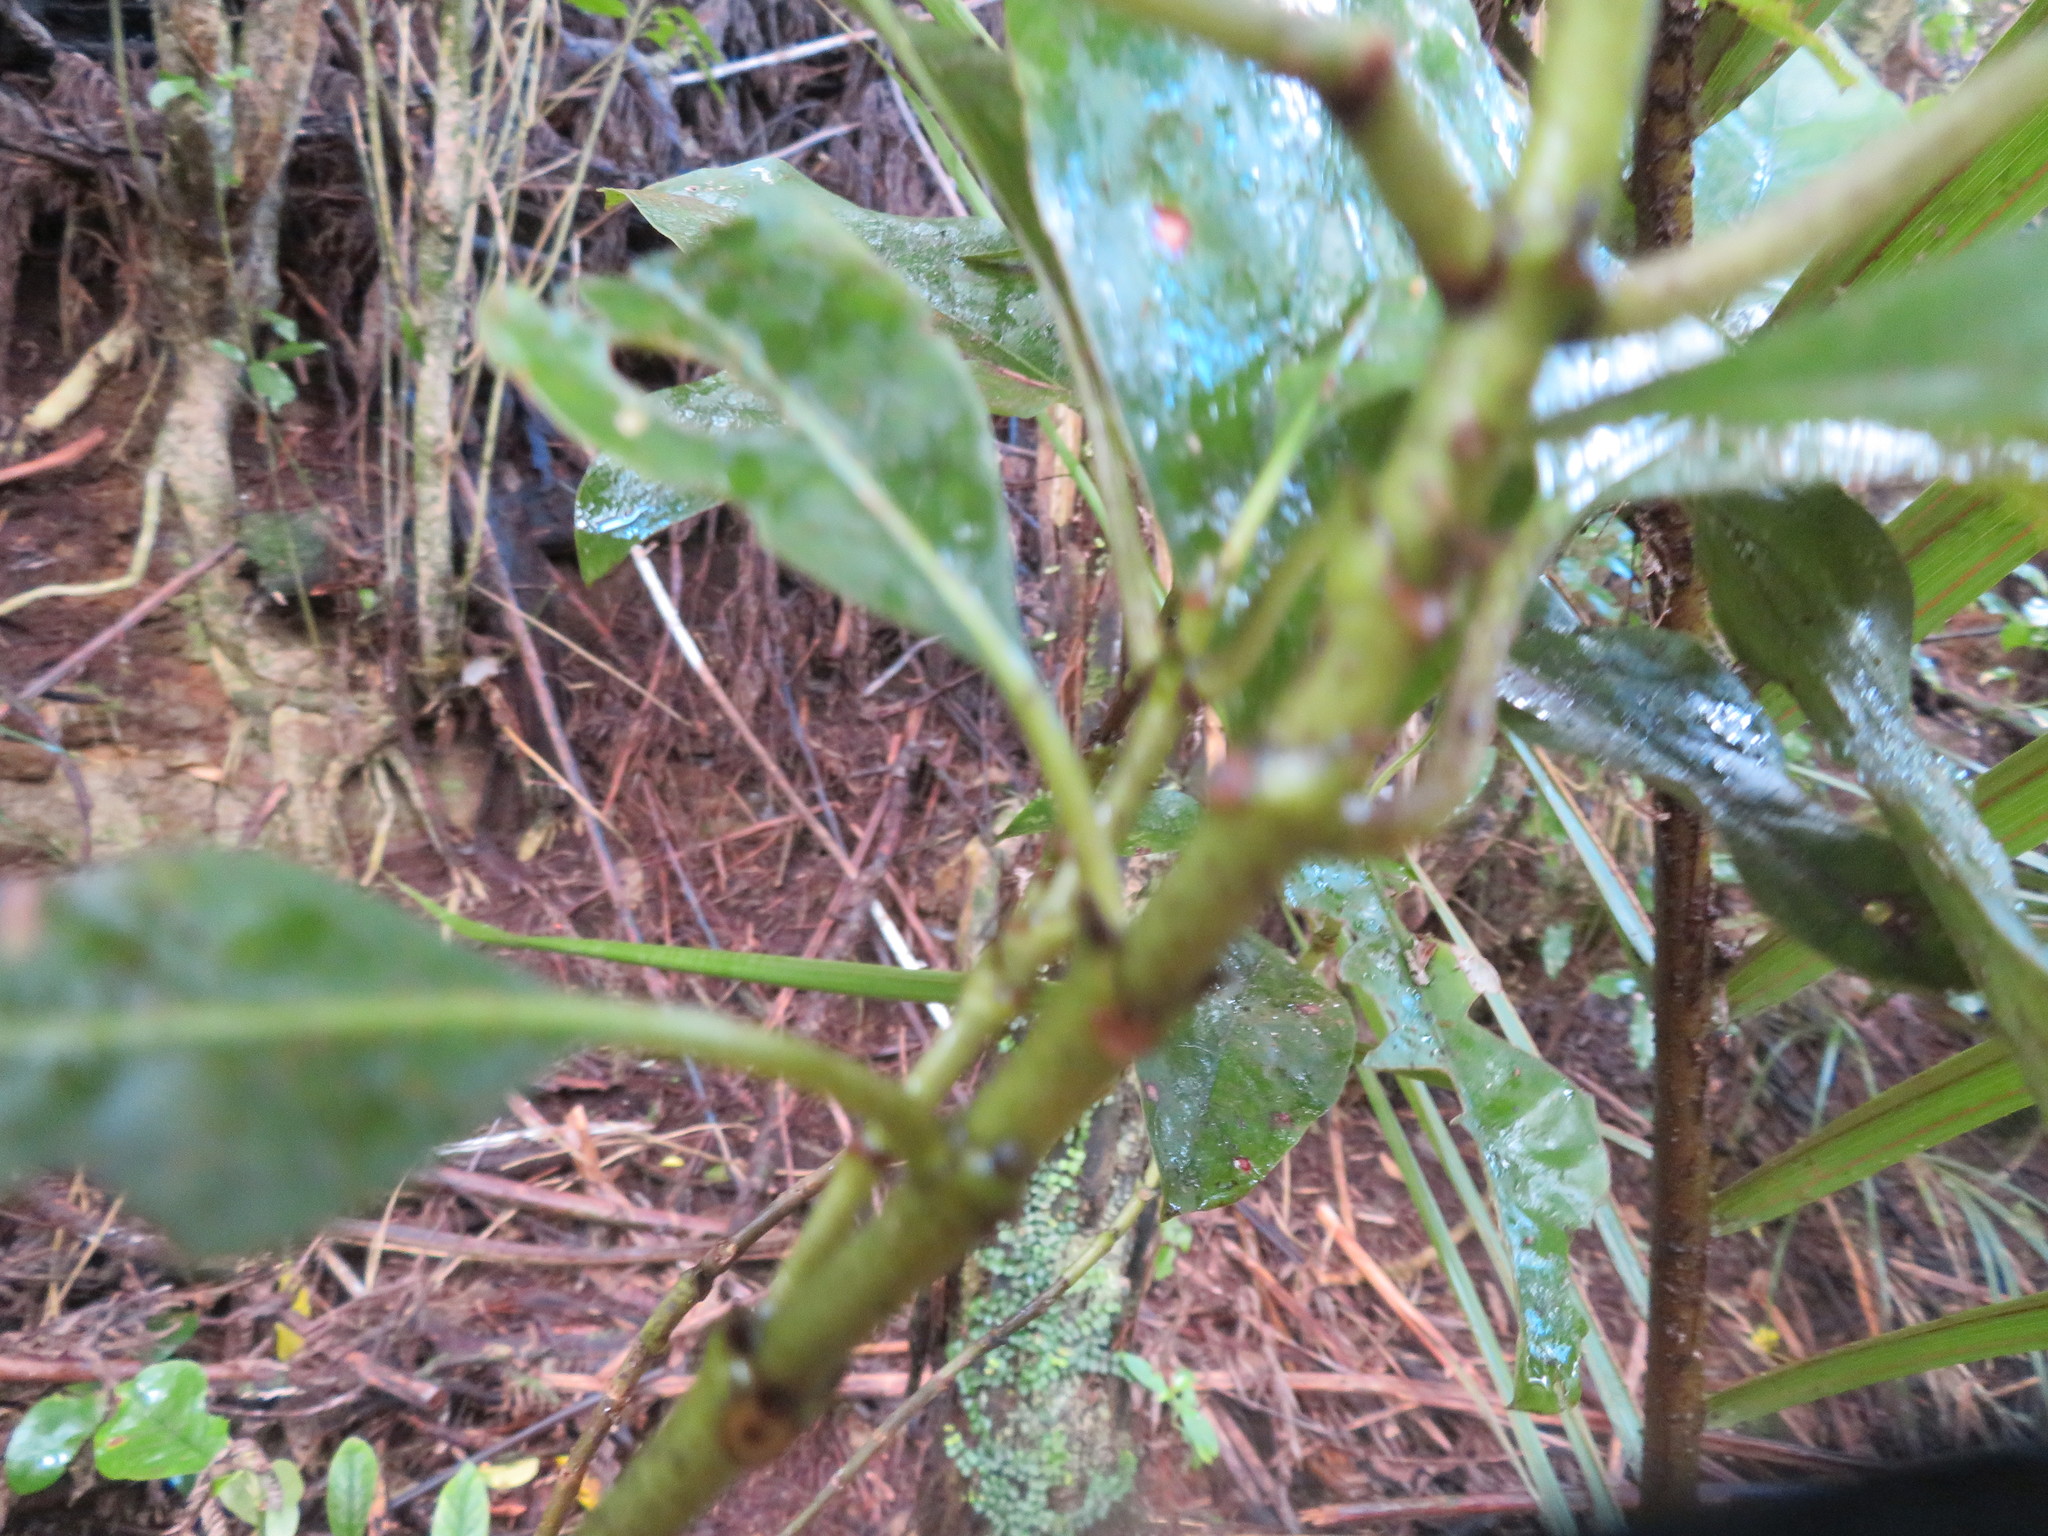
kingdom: Plantae
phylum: Tracheophyta
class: Magnoliopsida
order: Gentianales
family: Rubiaceae
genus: Coprosma
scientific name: Coprosma autumnalis
